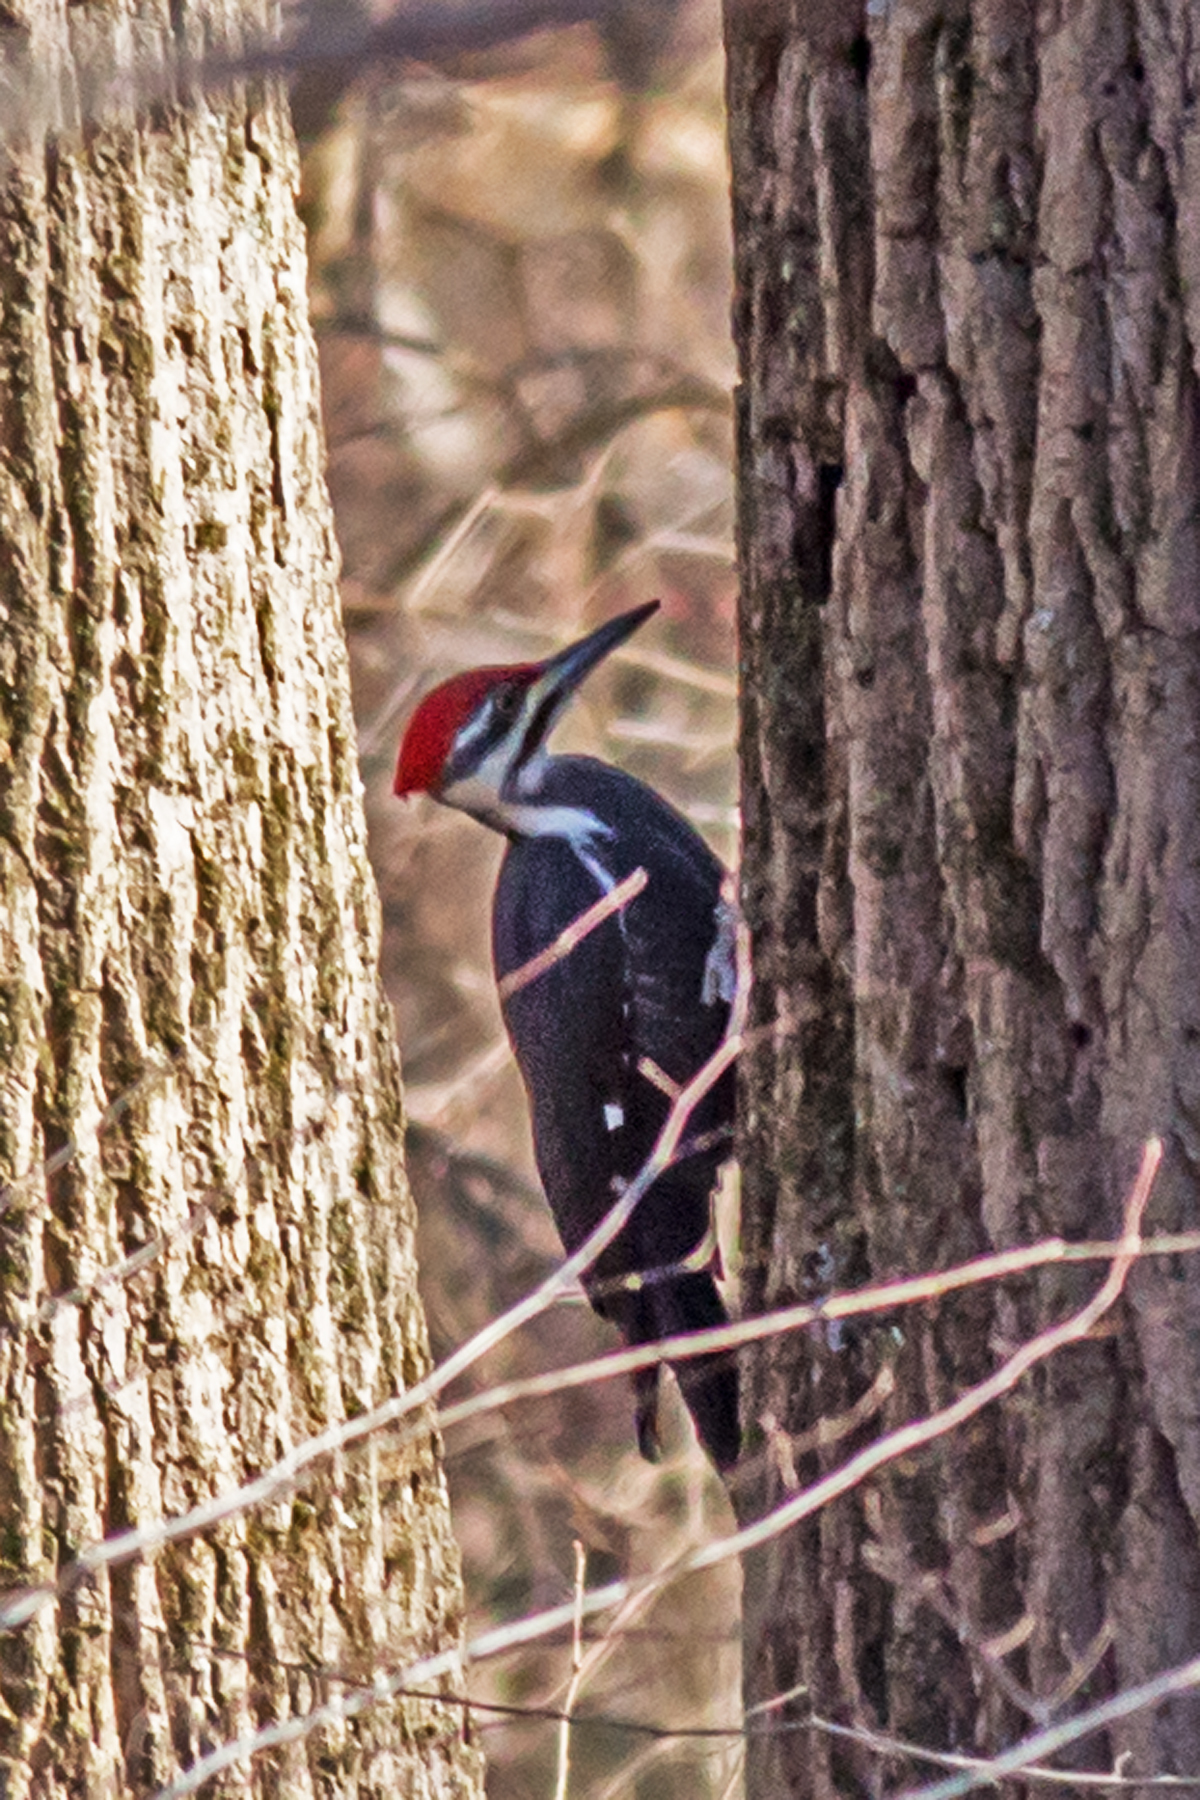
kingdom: Animalia
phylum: Chordata
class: Aves
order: Piciformes
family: Picidae
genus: Dryocopus
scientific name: Dryocopus pileatus
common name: Pileated woodpecker
